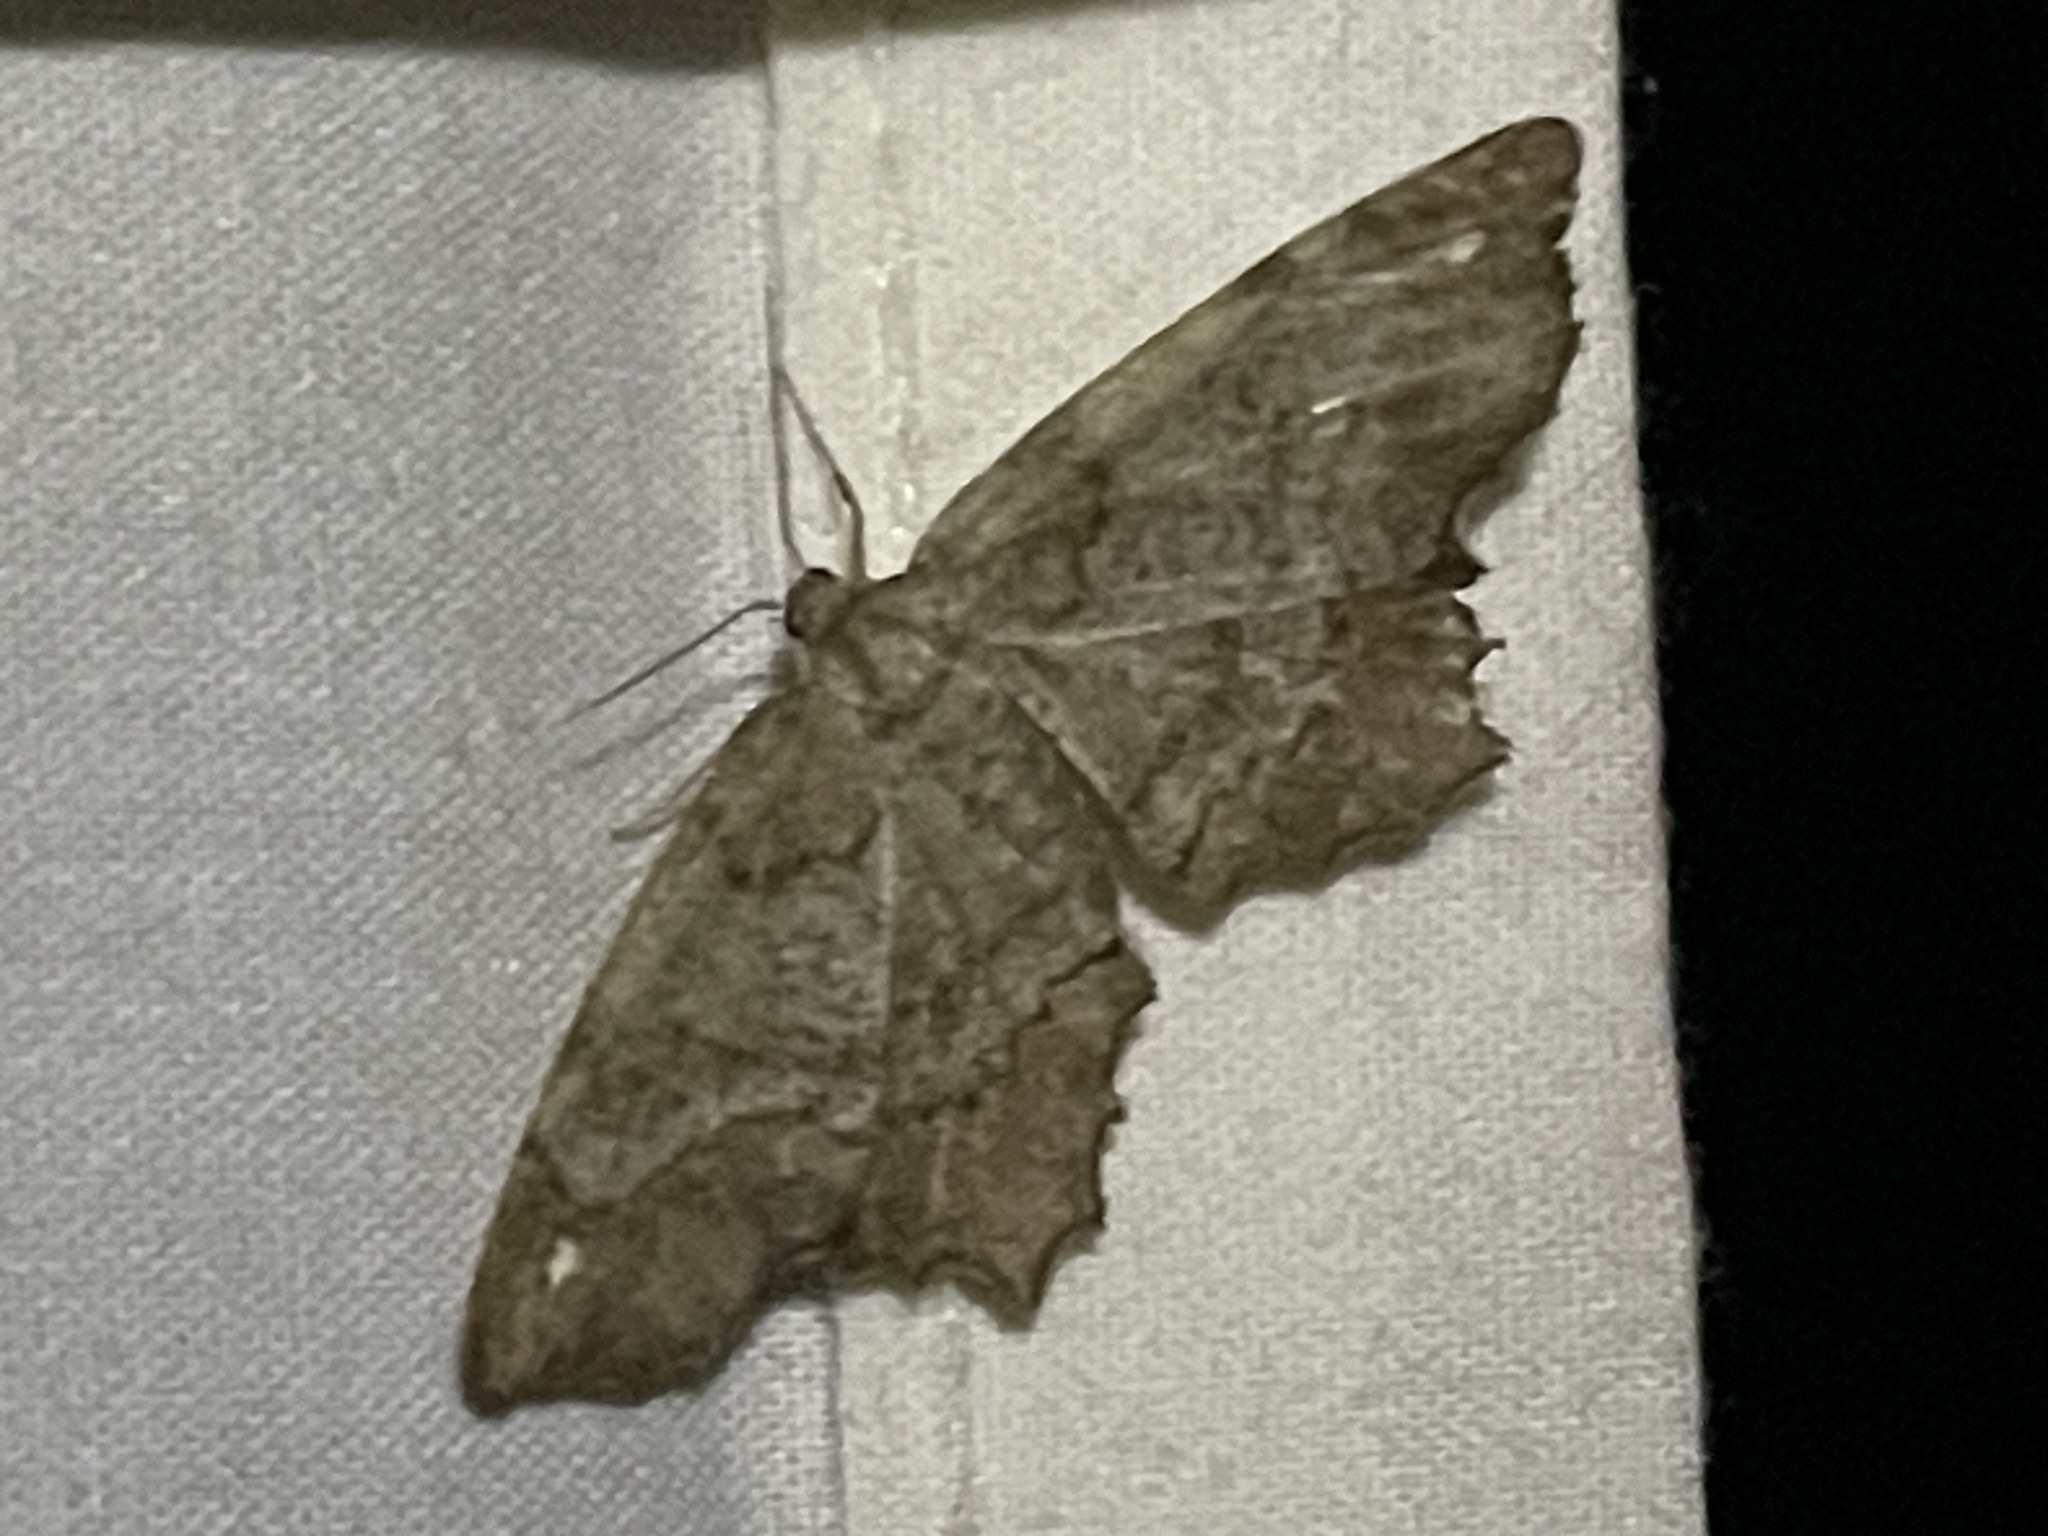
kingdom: Animalia
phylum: Arthropoda
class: Insecta
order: Lepidoptera
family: Geometridae
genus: Hypagyrtis
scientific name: Hypagyrtis unipunctata
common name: One-spotted variant
